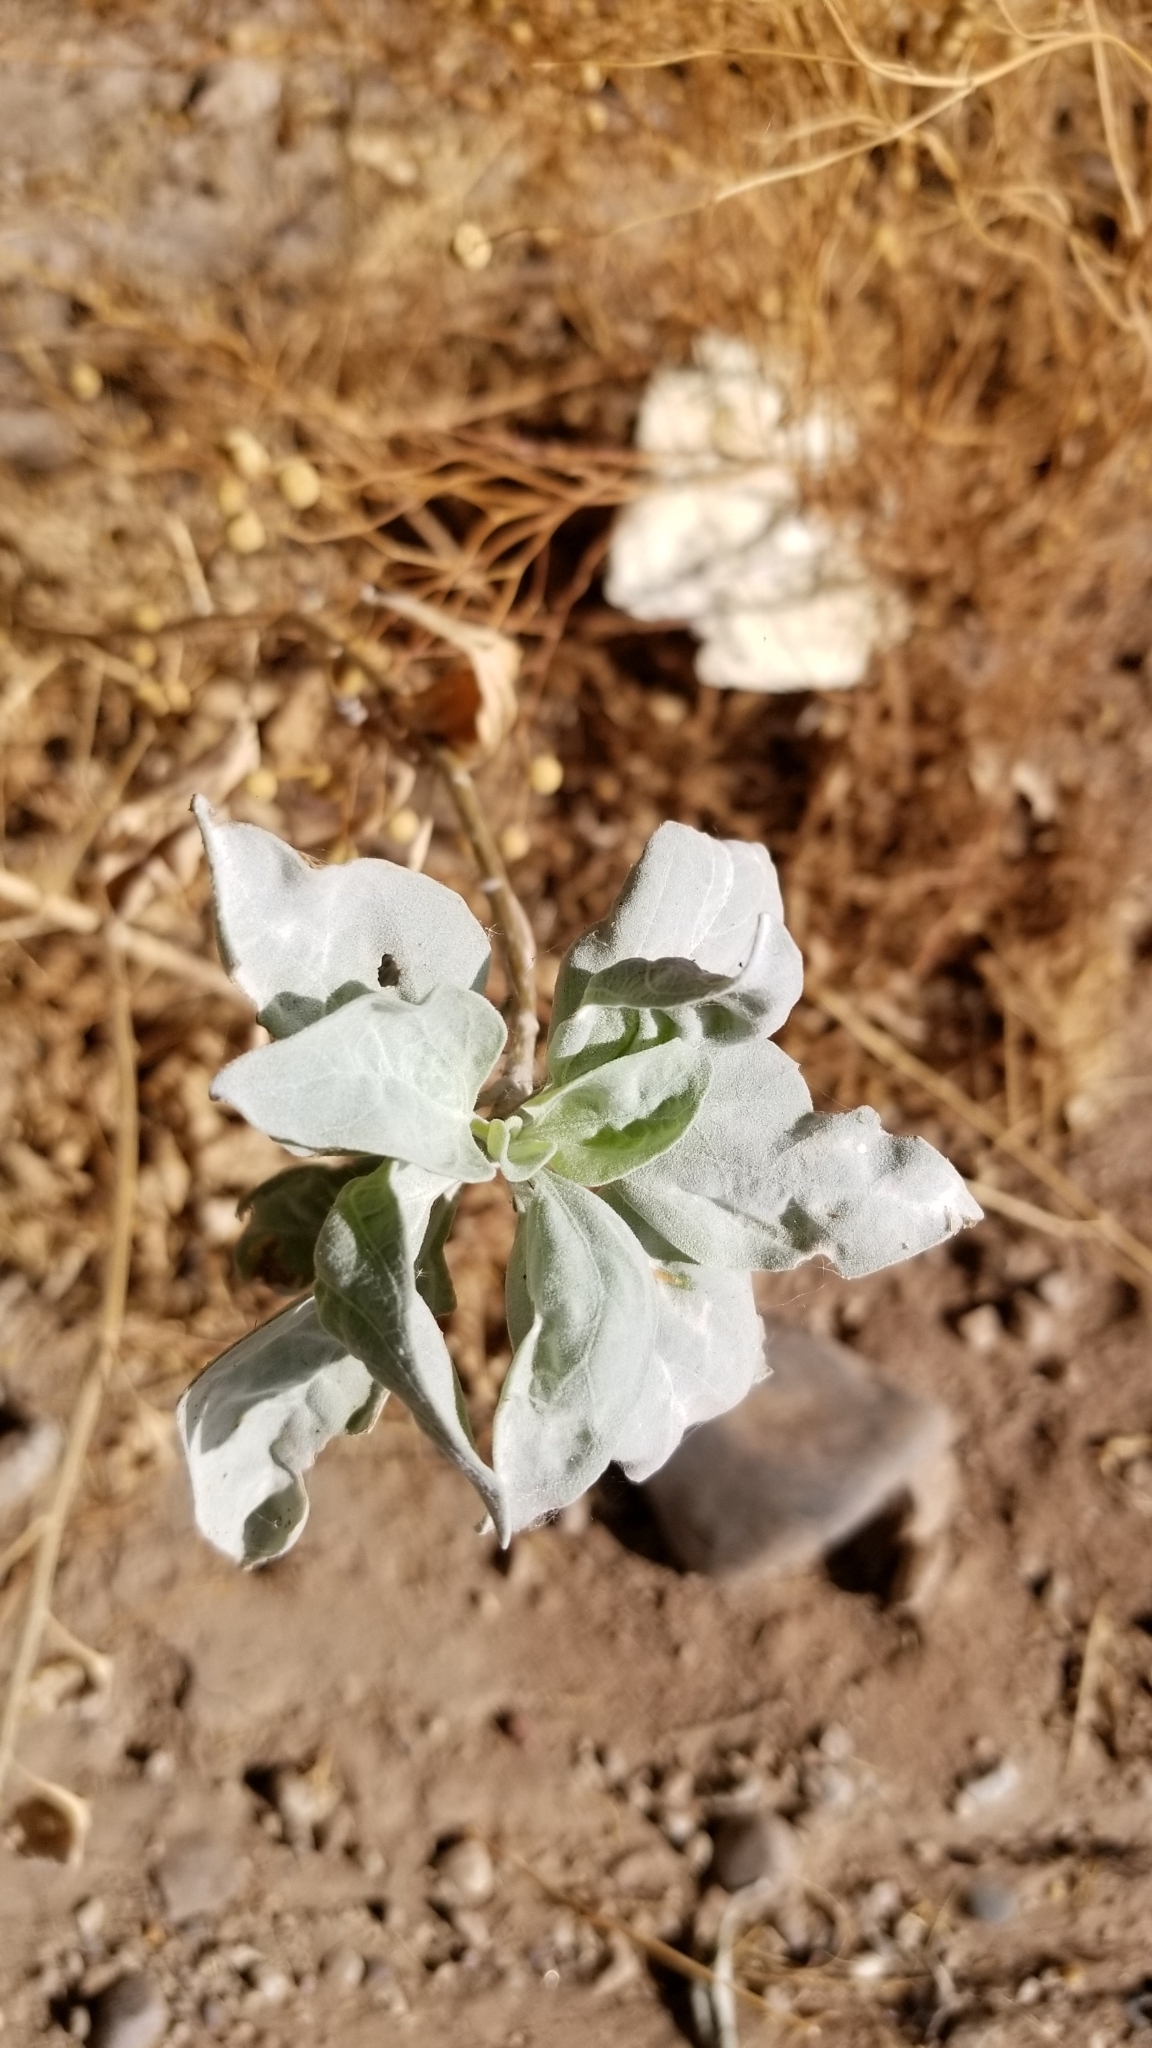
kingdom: Plantae
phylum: Tracheophyta
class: Magnoliopsida
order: Asterales
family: Asteraceae
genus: Encelia
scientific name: Encelia farinosa
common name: Brittlebush
